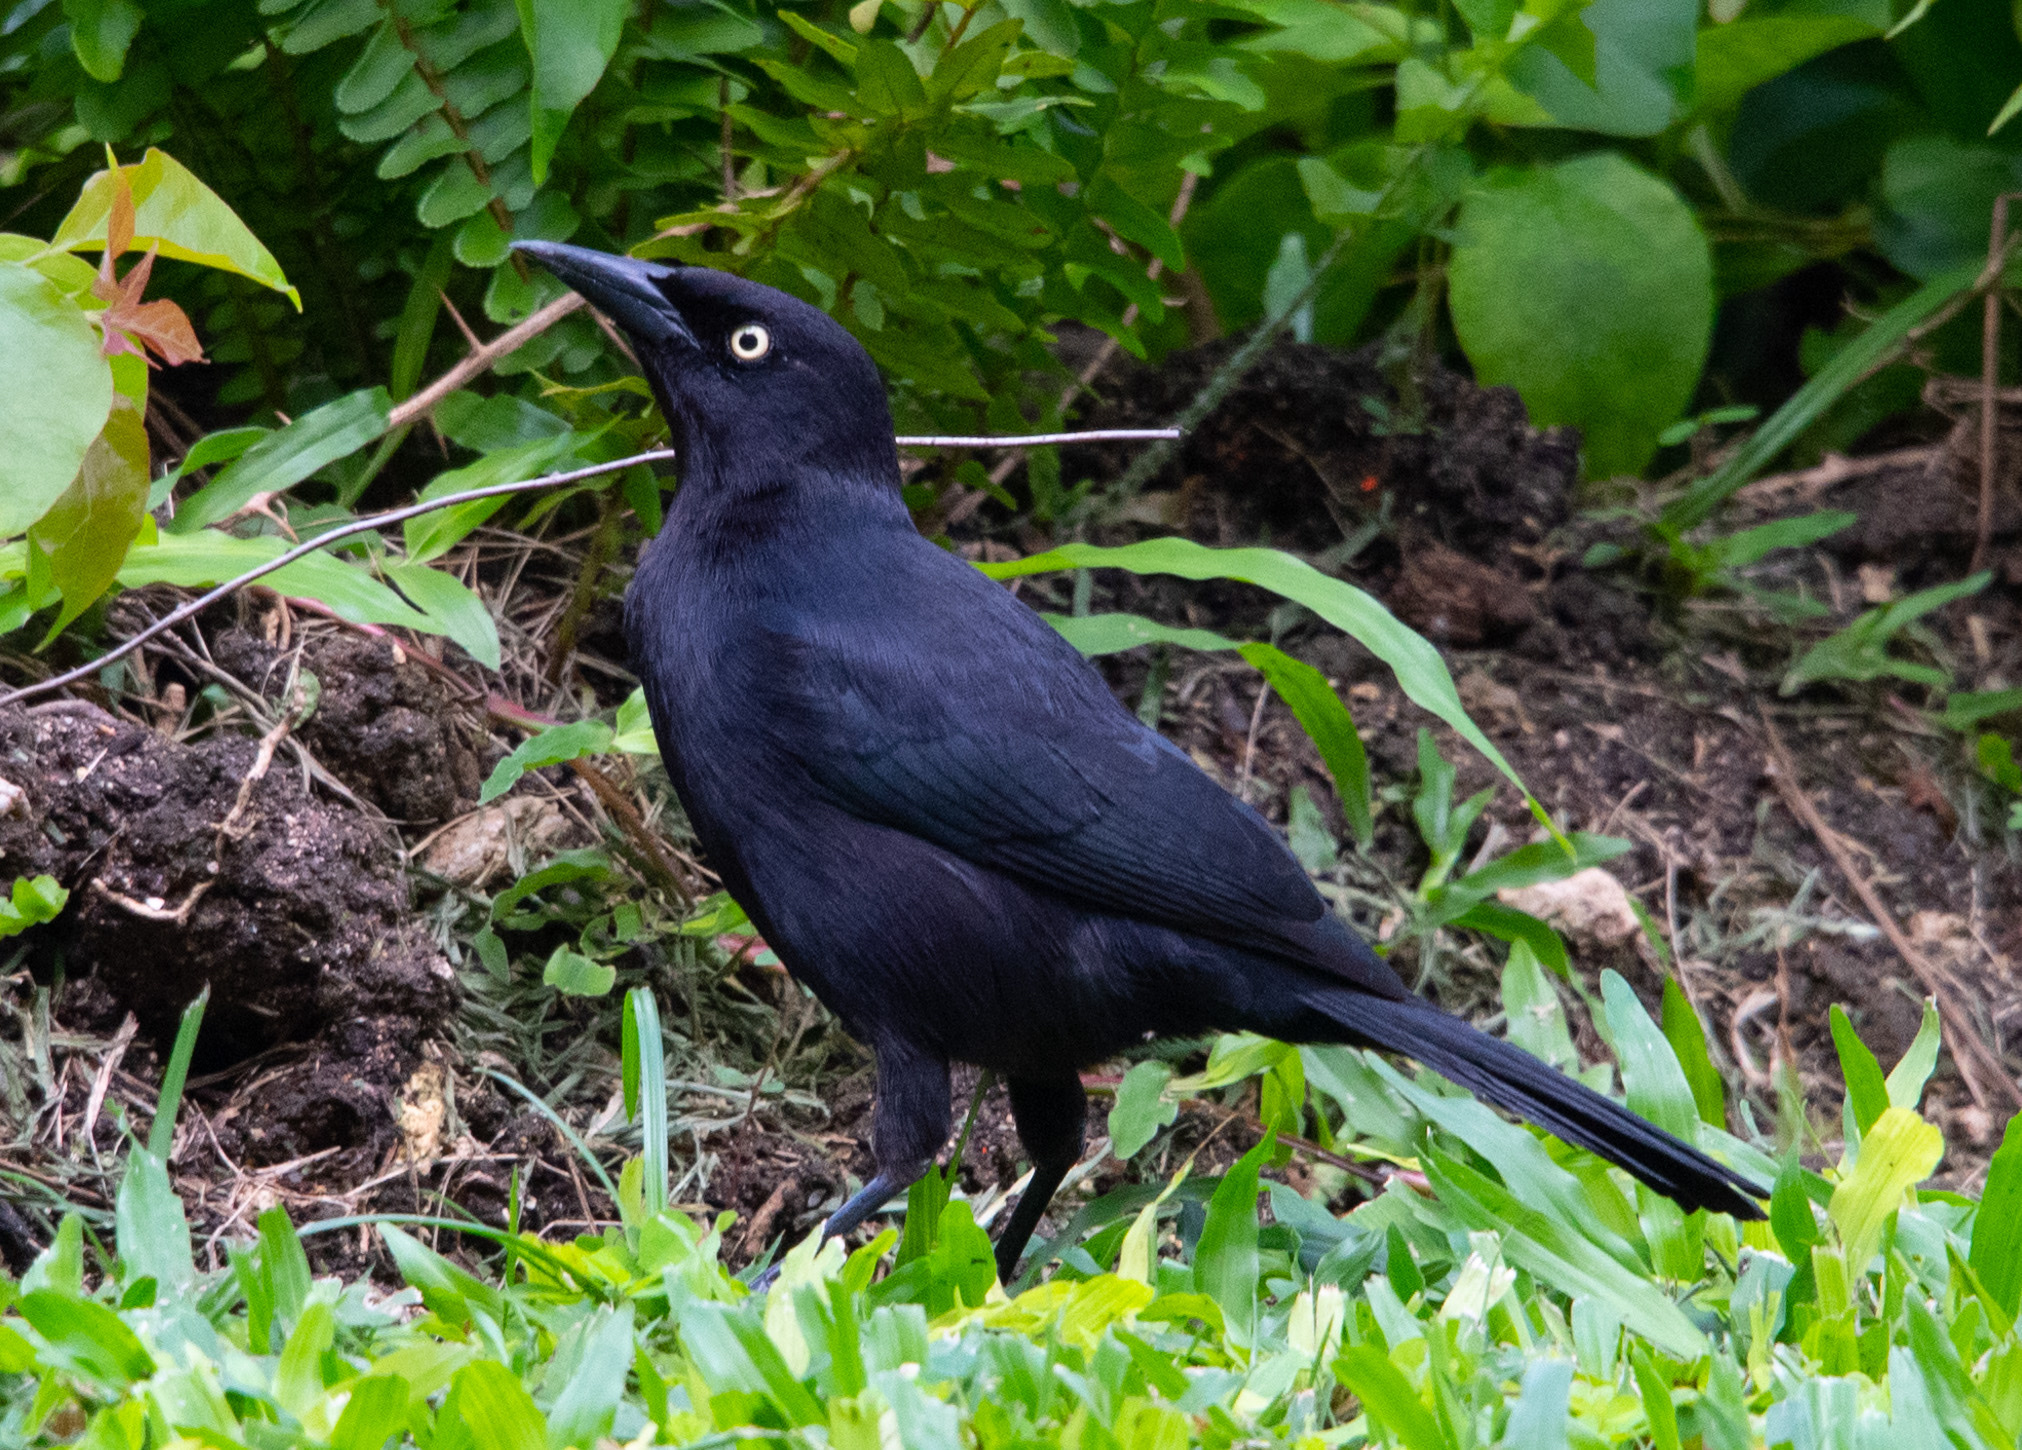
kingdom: Animalia
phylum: Chordata
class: Aves
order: Passeriformes
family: Icteridae
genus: Quiscalus
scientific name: Quiscalus lugubris
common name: Carib grackle
